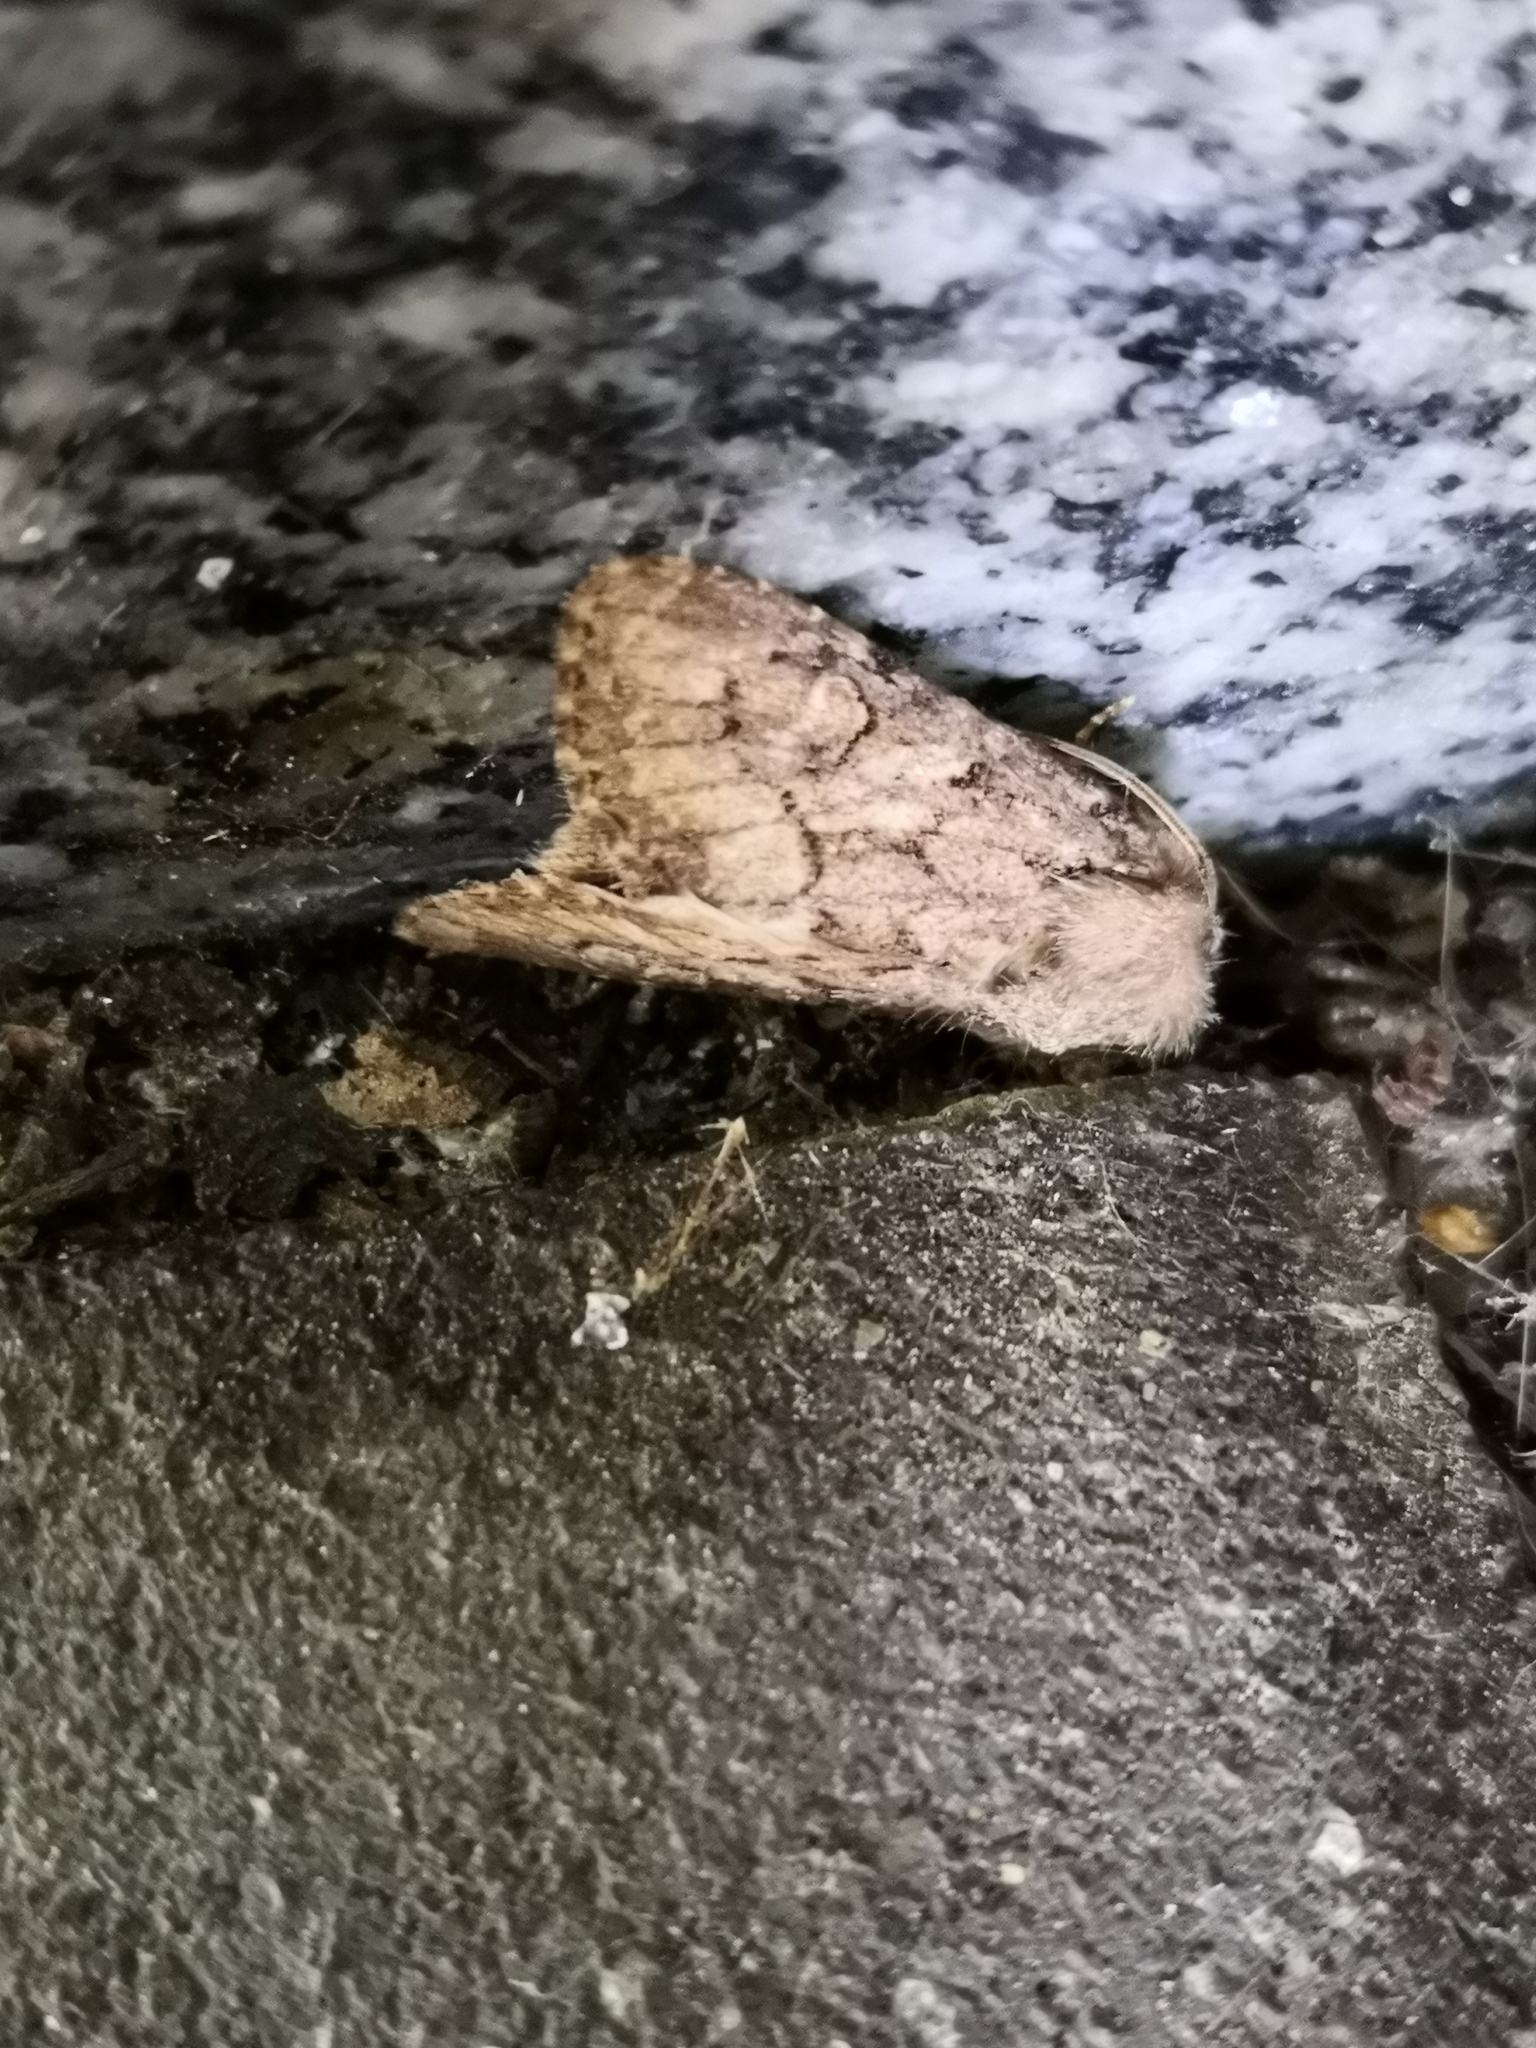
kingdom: Animalia
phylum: Arthropoda
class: Insecta
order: Lepidoptera
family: Noctuidae
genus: Luperina
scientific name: Luperina testacea
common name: Flounced rustic
